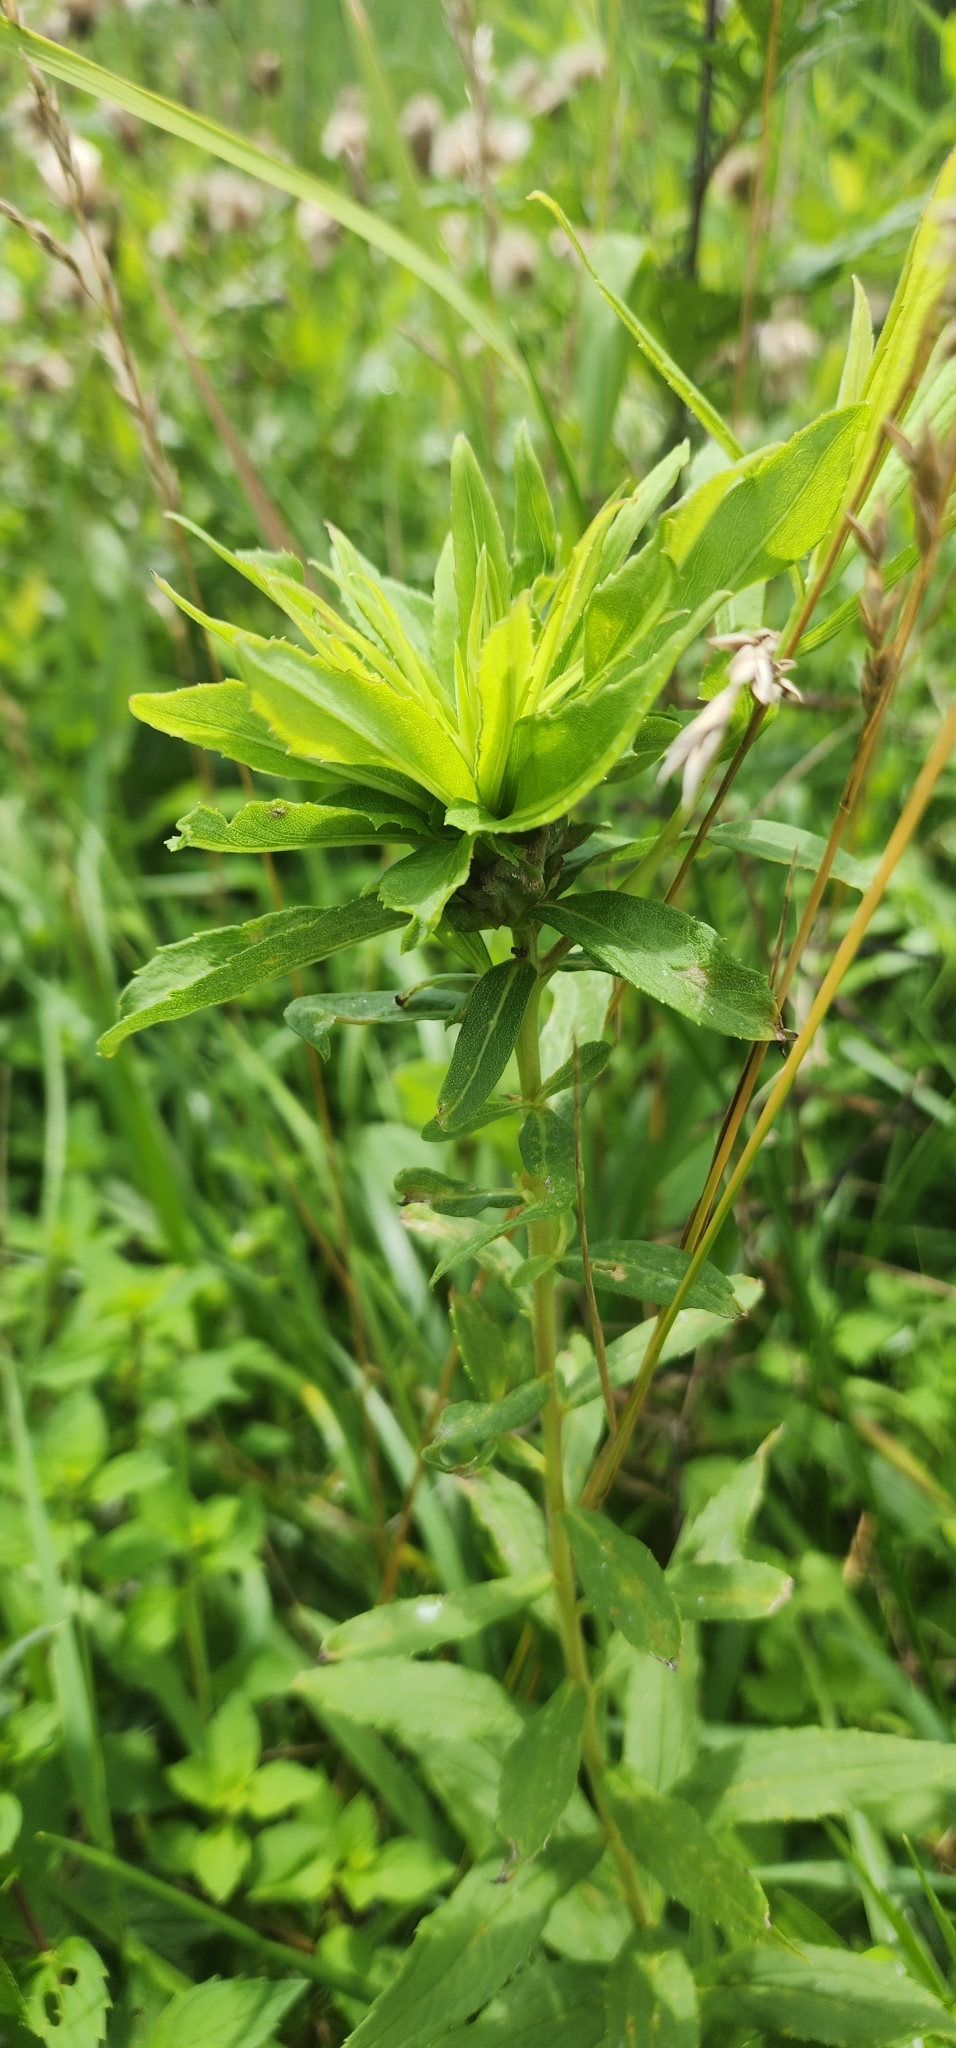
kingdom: Animalia
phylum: Arthropoda
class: Insecta
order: Diptera
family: Cecidomyiidae
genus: Rhopalomyia
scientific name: Rhopalomyia solidaginis
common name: Goldenrod bunch gall midge
